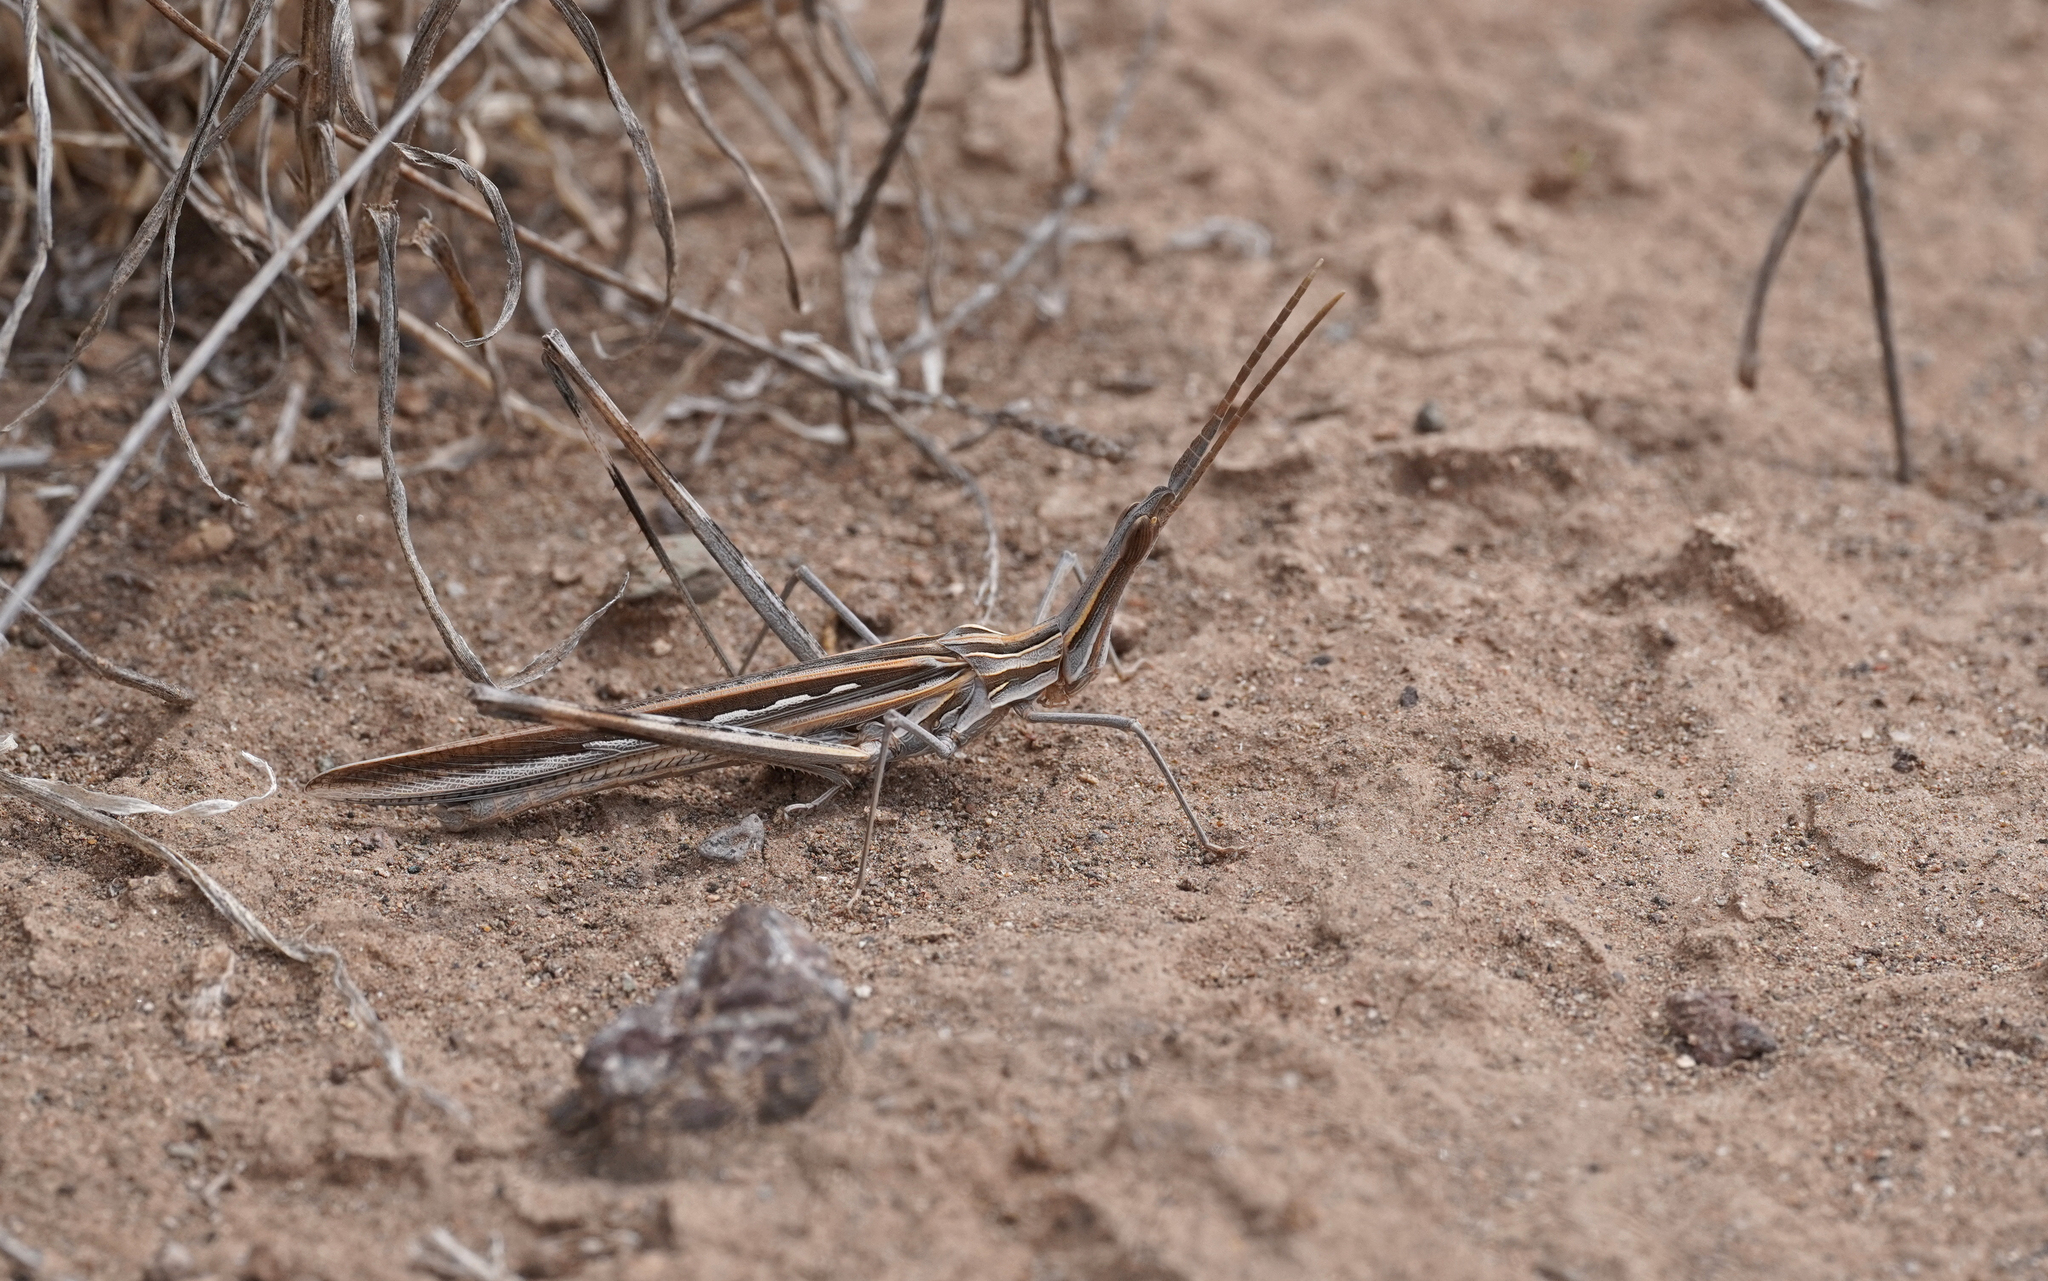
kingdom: Animalia
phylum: Arthropoda
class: Insecta
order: Orthoptera
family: Acrididae
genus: Truxalis
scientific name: Truxalis nasuta
